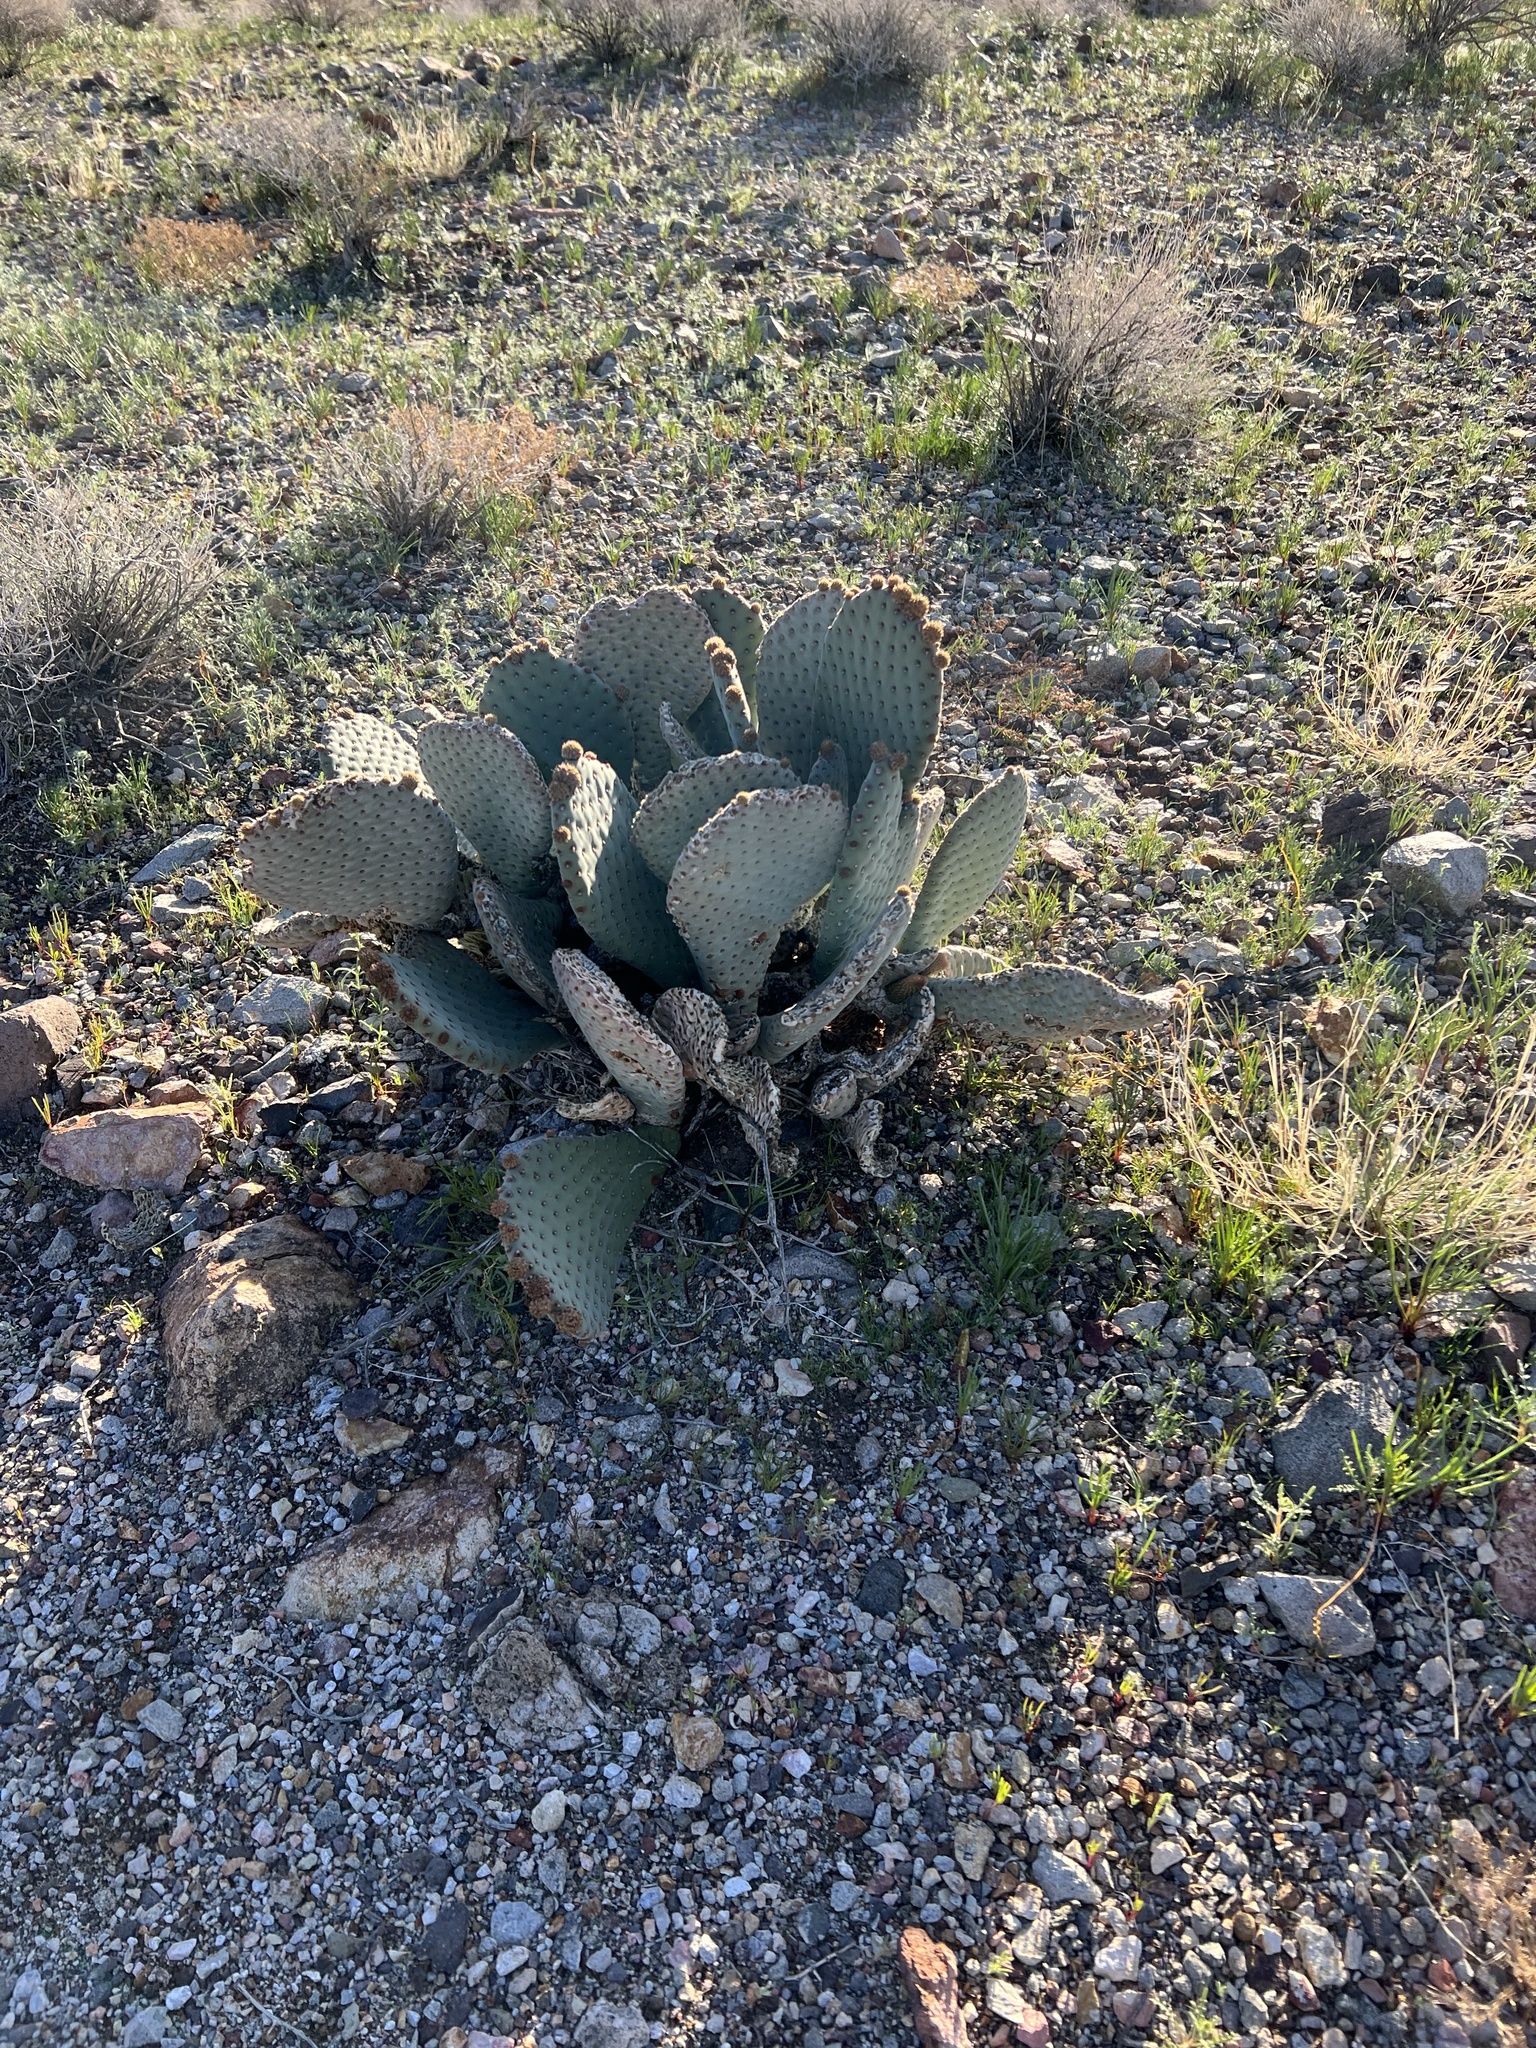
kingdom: Plantae
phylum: Tracheophyta
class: Magnoliopsida
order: Caryophyllales
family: Cactaceae
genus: Opuntia
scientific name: Opuntia basilaris
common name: Beavertail prickly-pear
